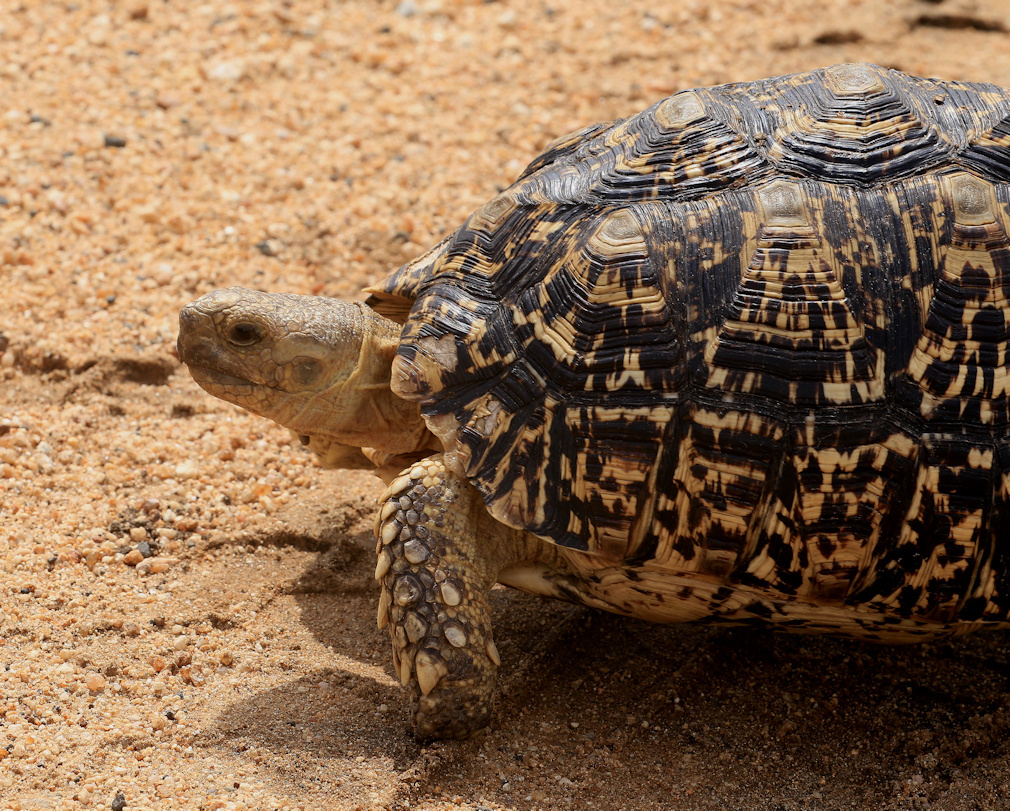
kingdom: Animalia
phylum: Chordata
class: Testudines
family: Testudinidae
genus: Stigmochelys
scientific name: Stigmochelys pardalis
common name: Leopard tortoise
